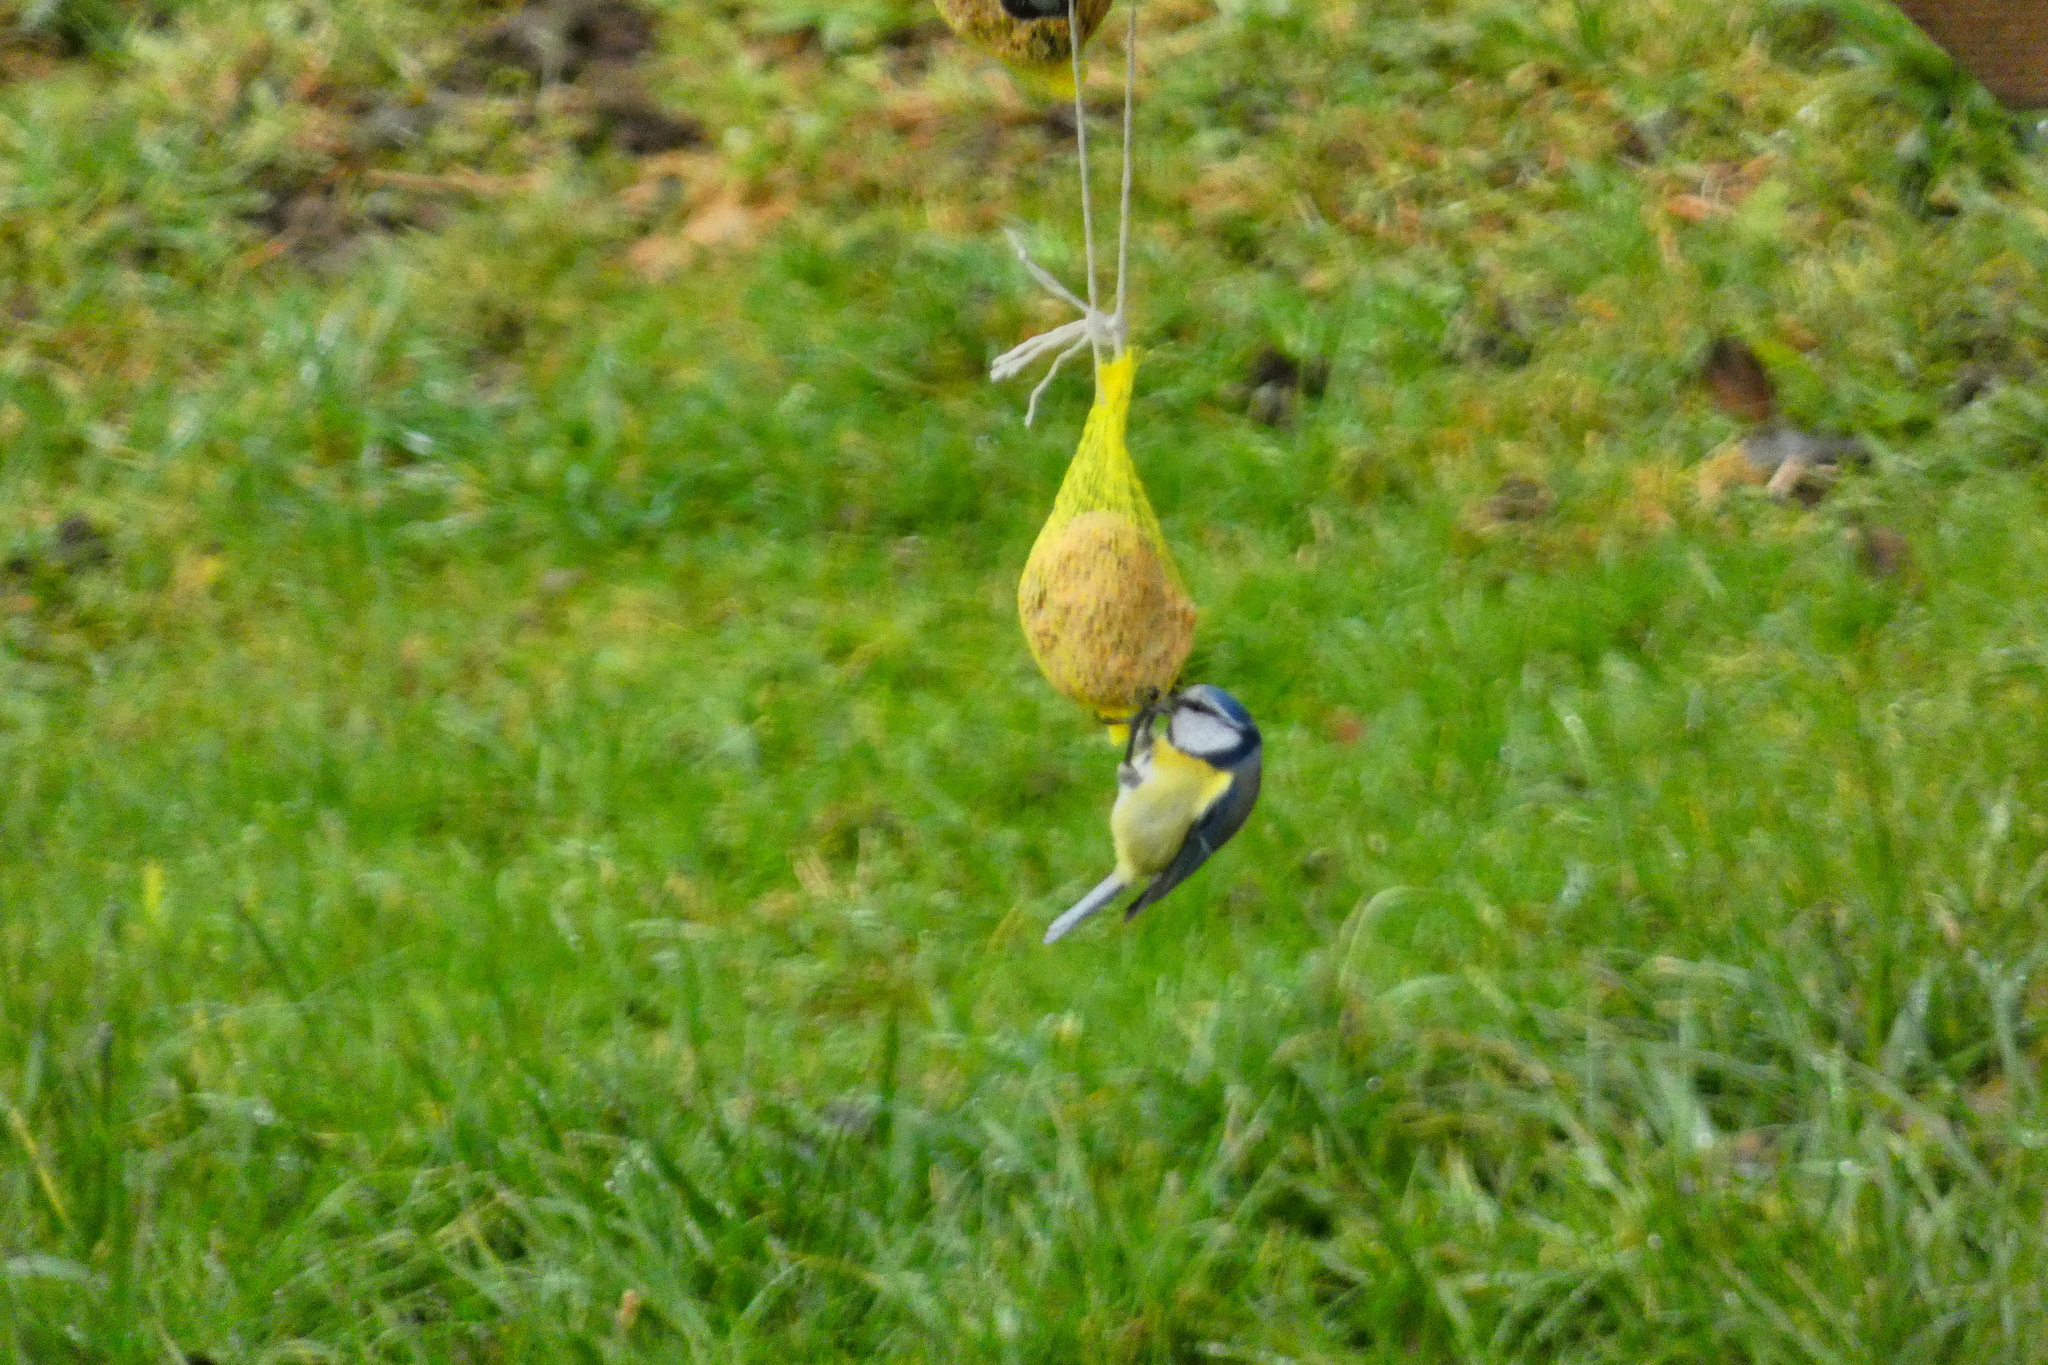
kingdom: Animalia
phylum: Chordata
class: Aves
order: Passeriformes
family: Paridae
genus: Cyanistes
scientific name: Cyanistes caeruleus
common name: Eurasian blue tit
